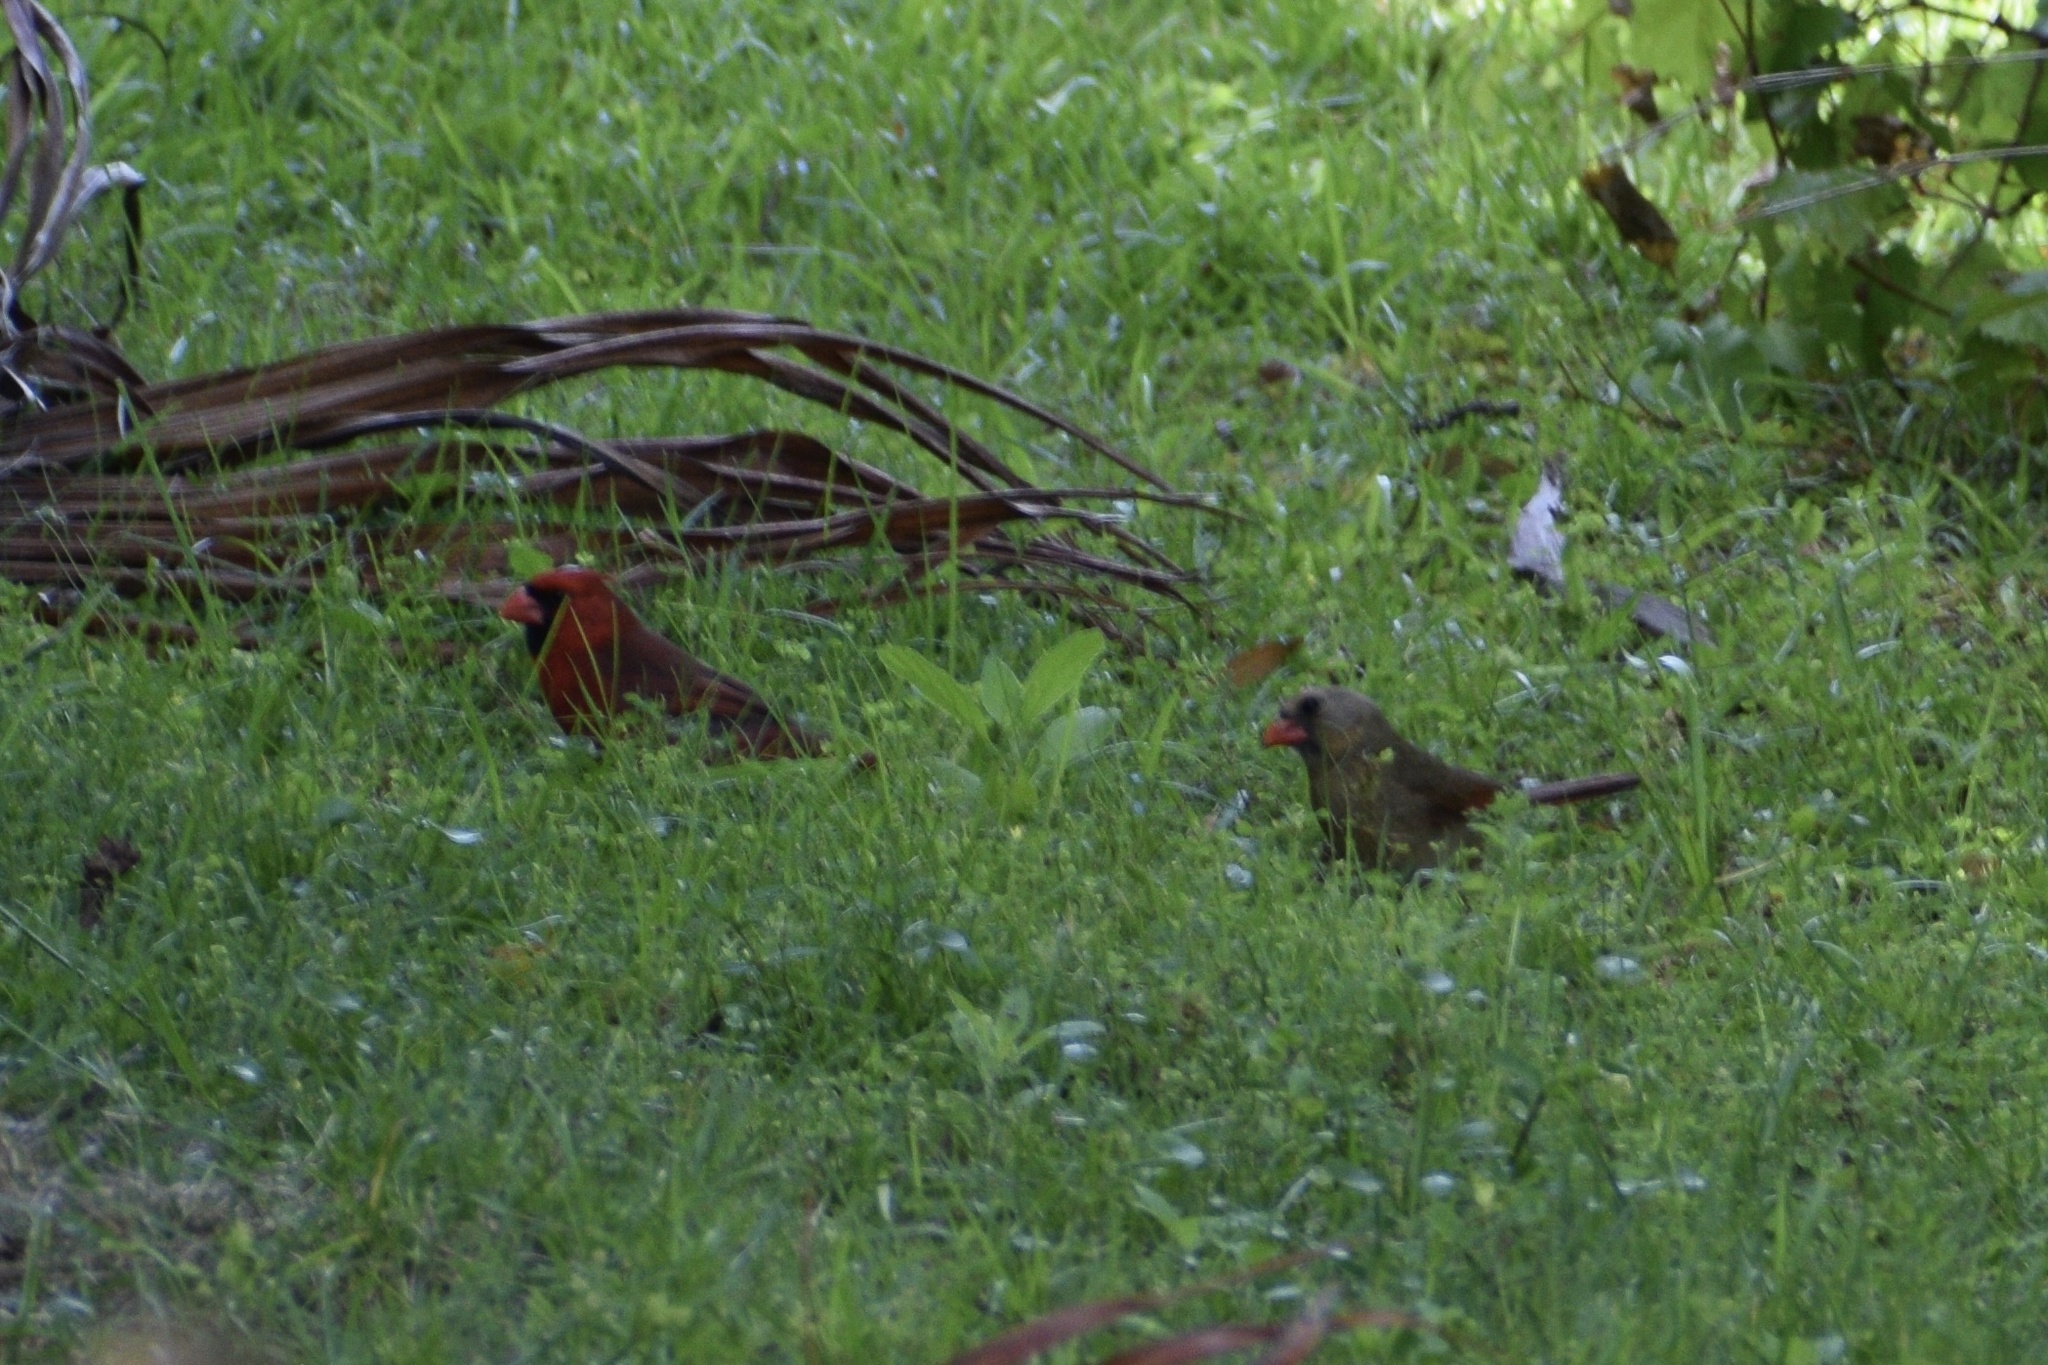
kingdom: Animalia
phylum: Chordata
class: Aves
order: Passeriformes
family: Cardinalidae
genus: Cardinalis
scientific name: Cardinalis cardinalis
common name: Northern cardinal
